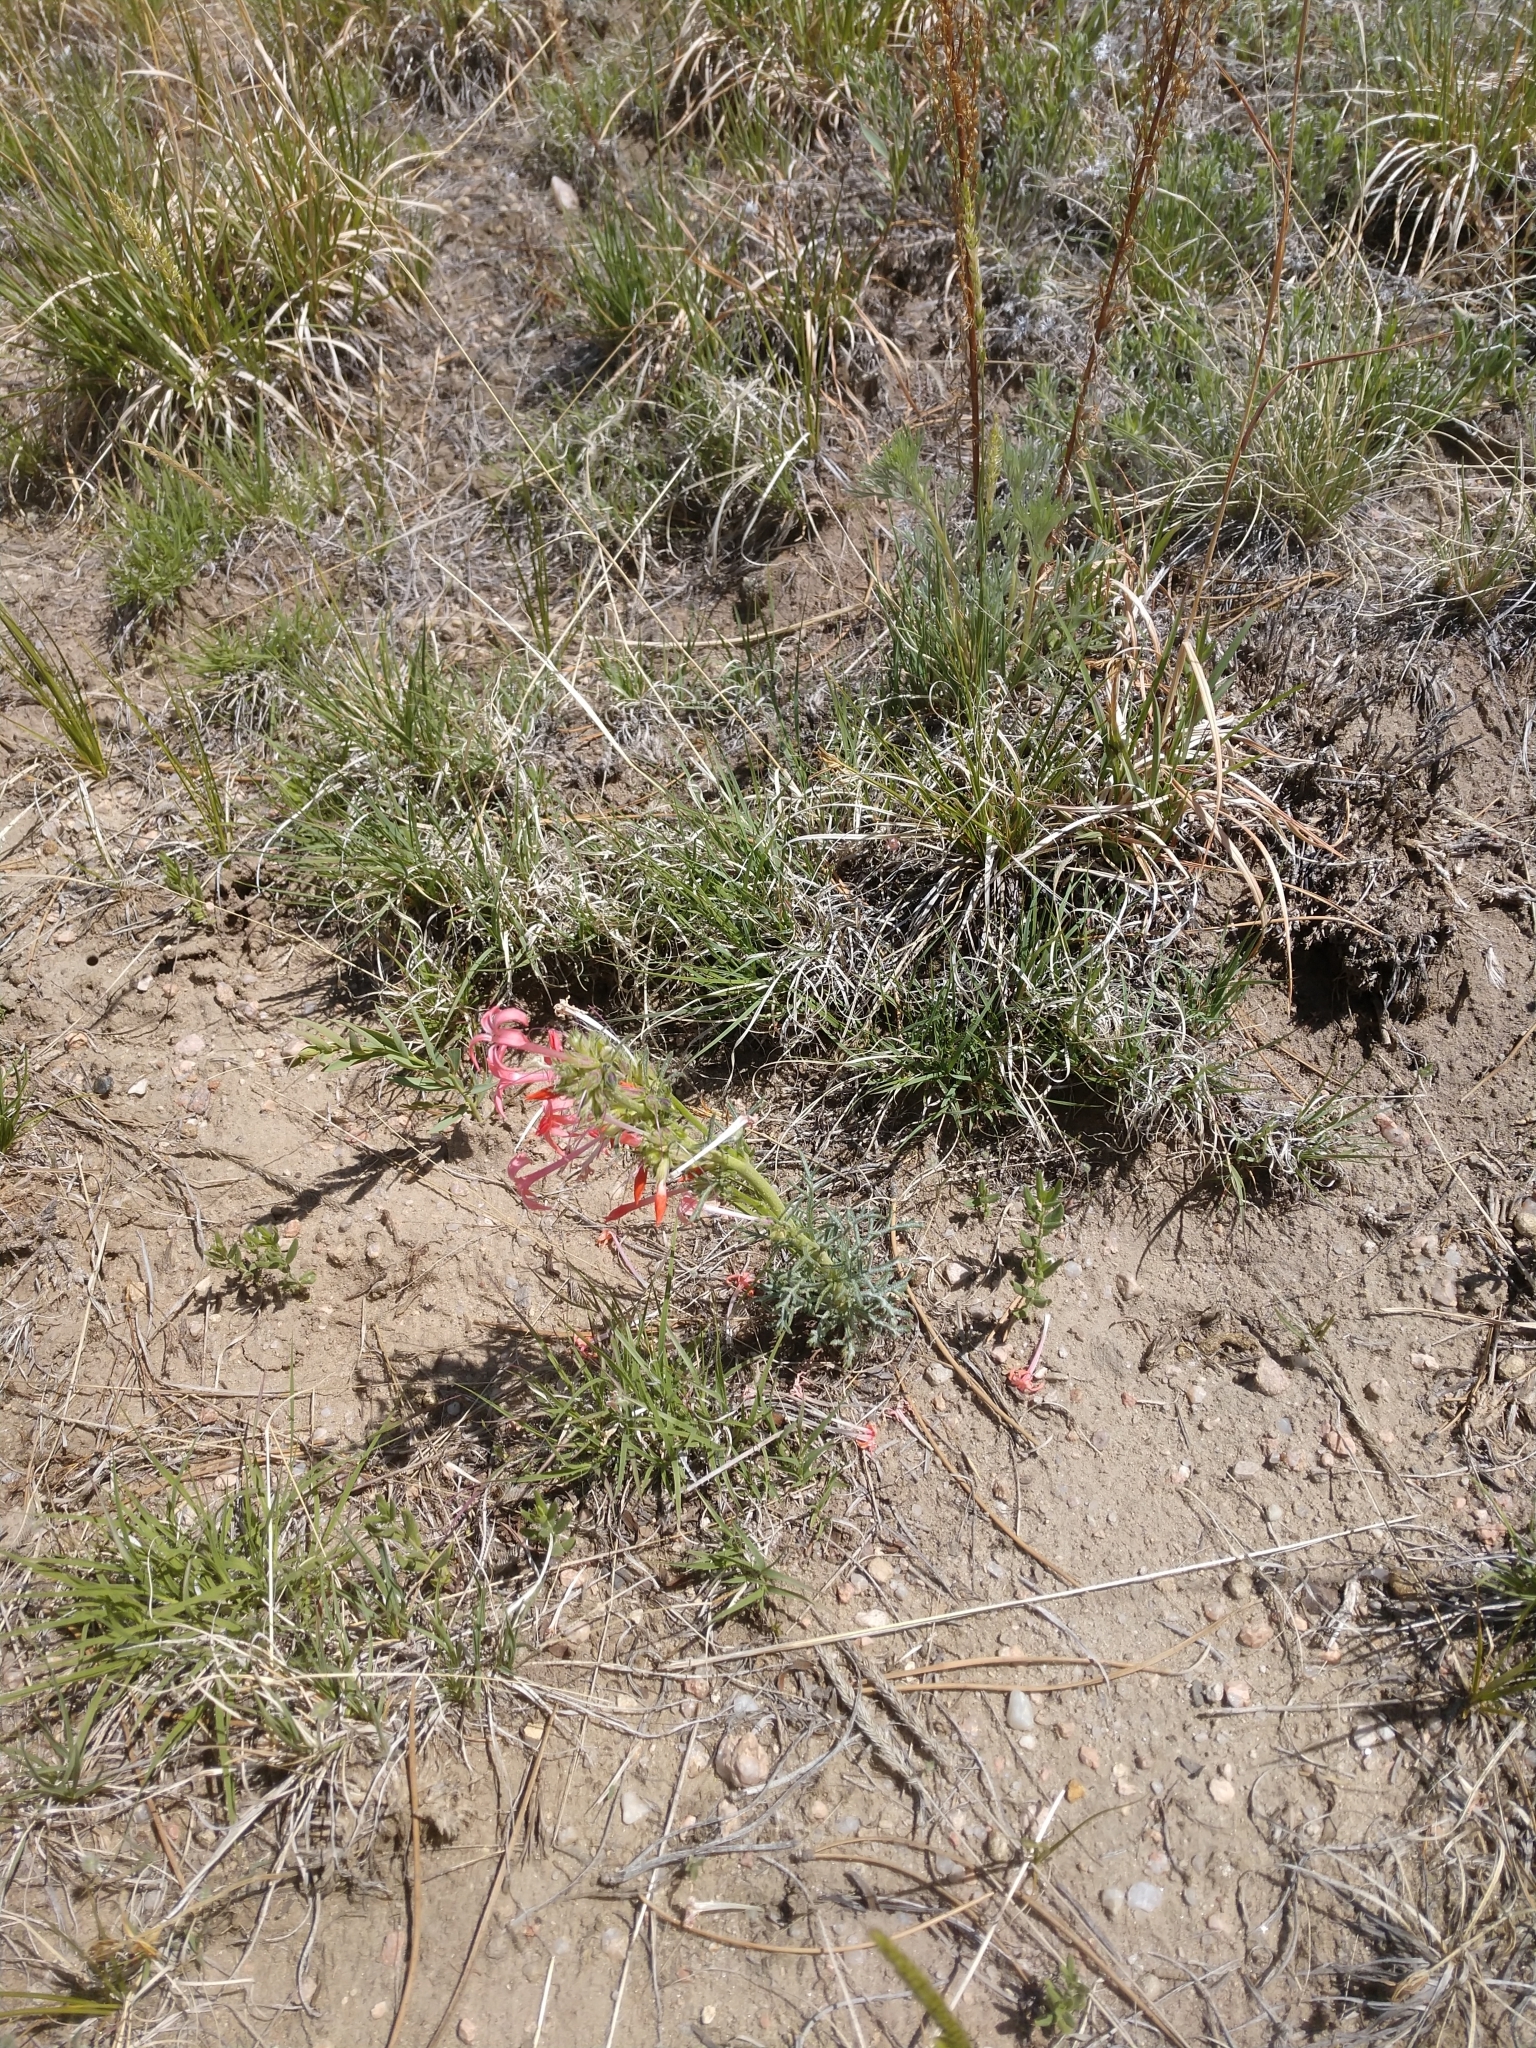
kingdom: Plantae
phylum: Tracheophyta
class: Magnoliopsida
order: Ericales
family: Polemoniaceae
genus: Ipomopsis
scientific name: Ipomopsis aggregata
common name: Scarlet gilia
